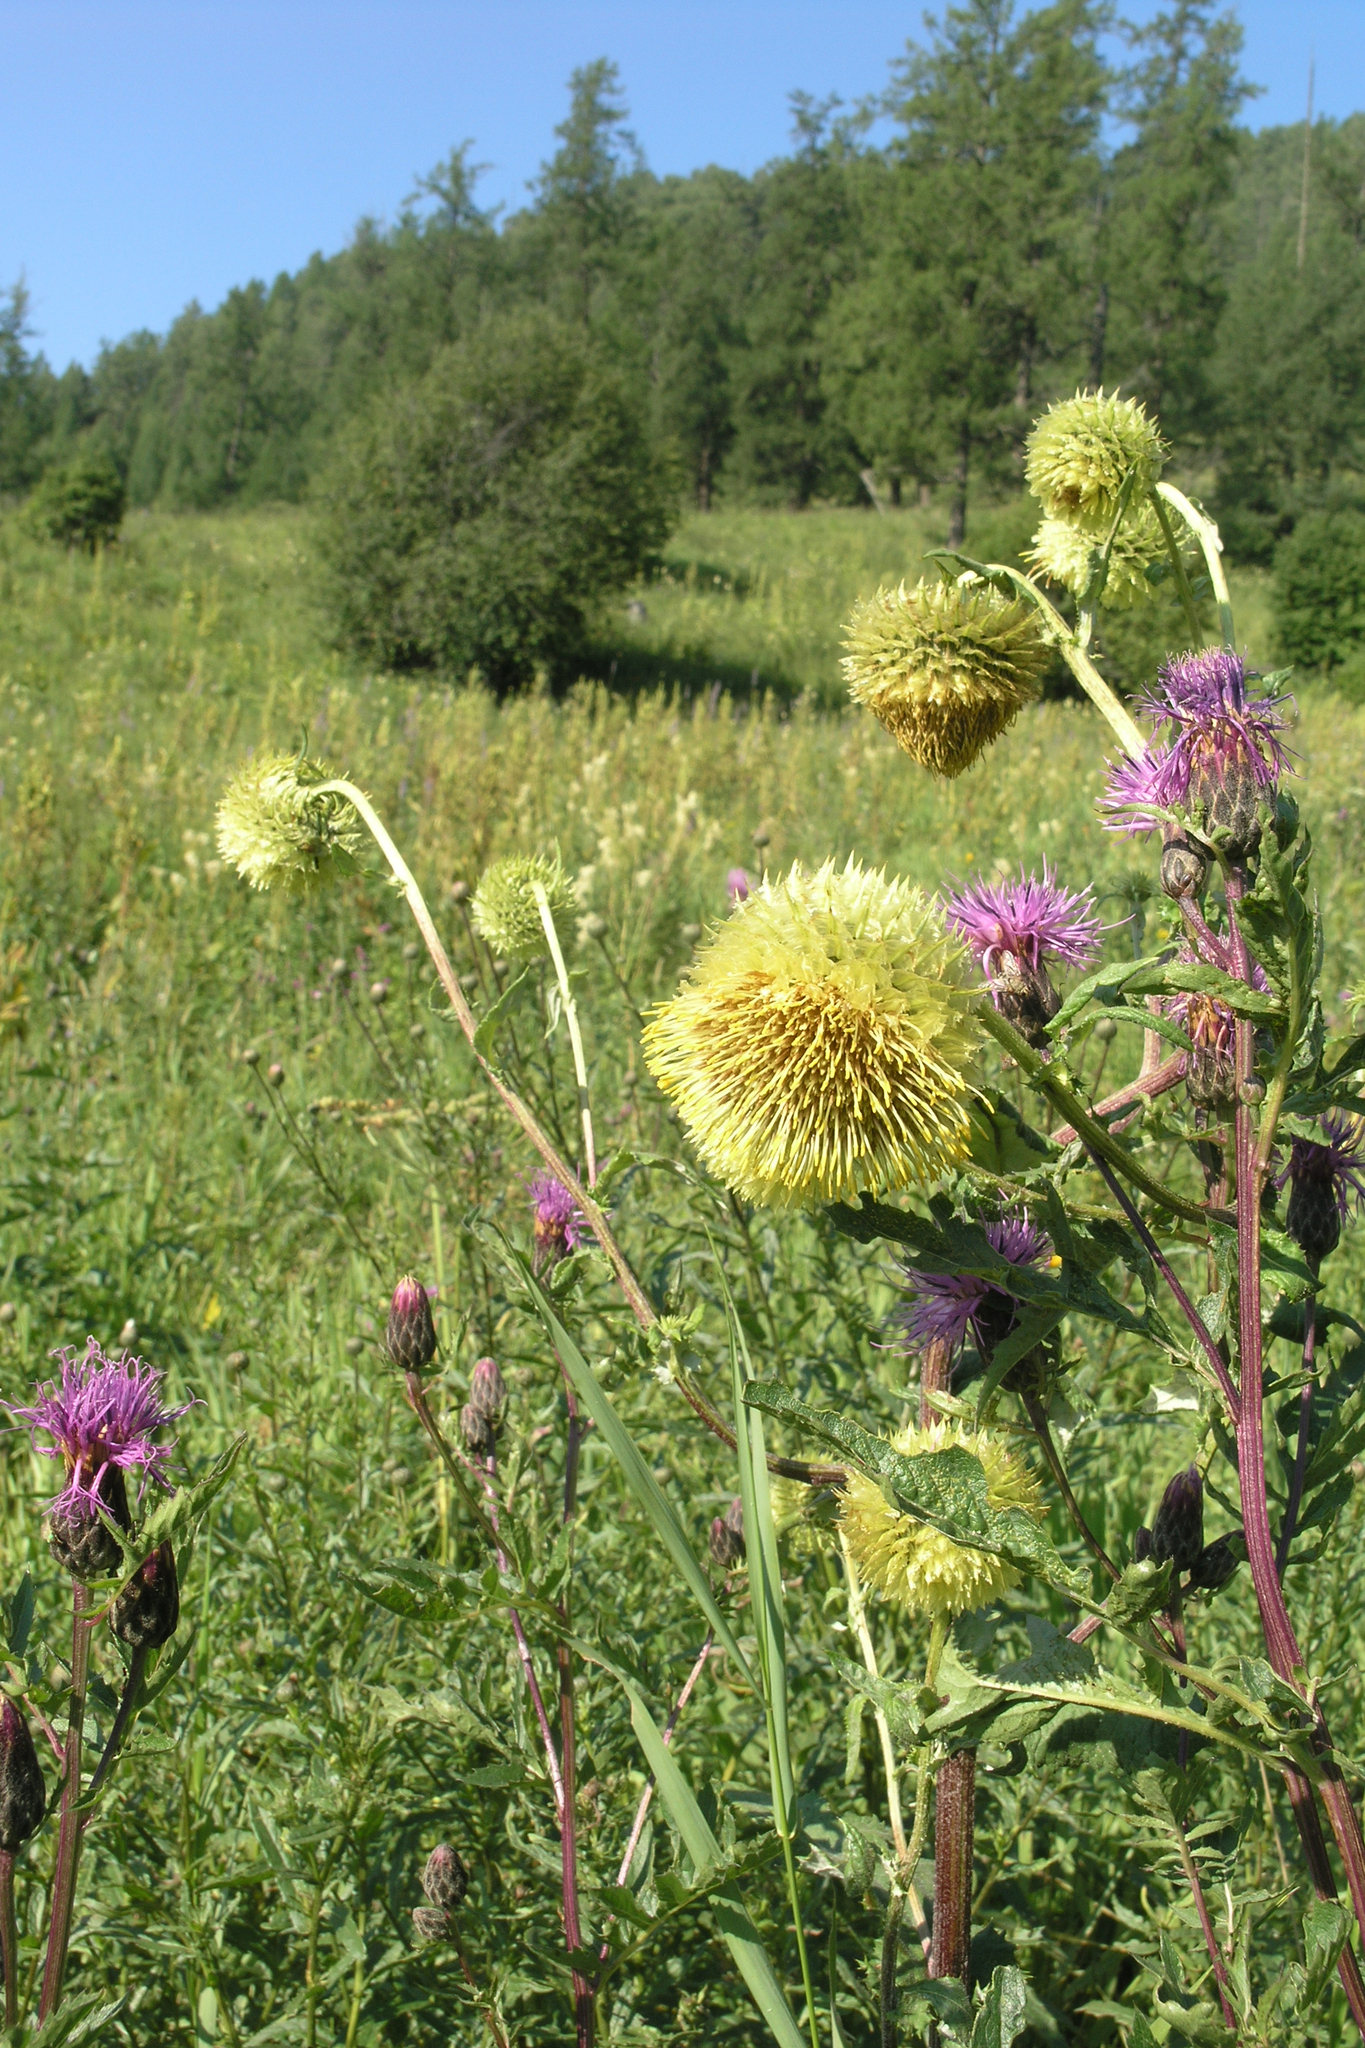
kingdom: Plantae
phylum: Tracheophyta
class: Magnoliopsida
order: Asterales
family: Asteraceae
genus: Serratula
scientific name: Serratula coronata
